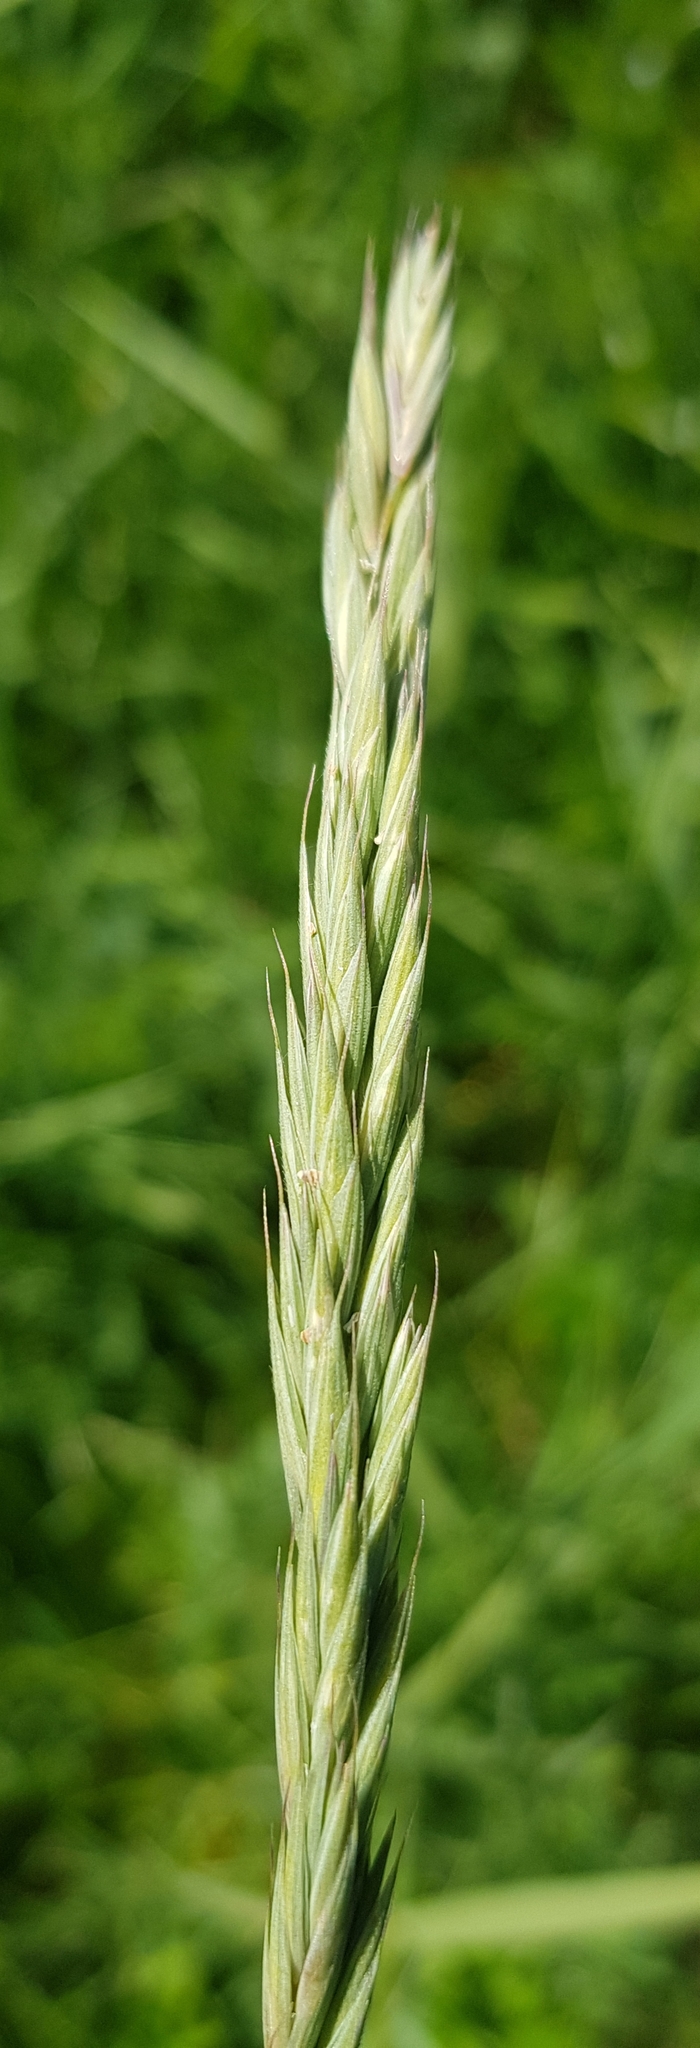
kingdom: Plantae
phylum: Tracheophyta
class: Liliopsida
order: Poales
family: Poaceae
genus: Elymus
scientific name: Elymus repens
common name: Quackgrass
